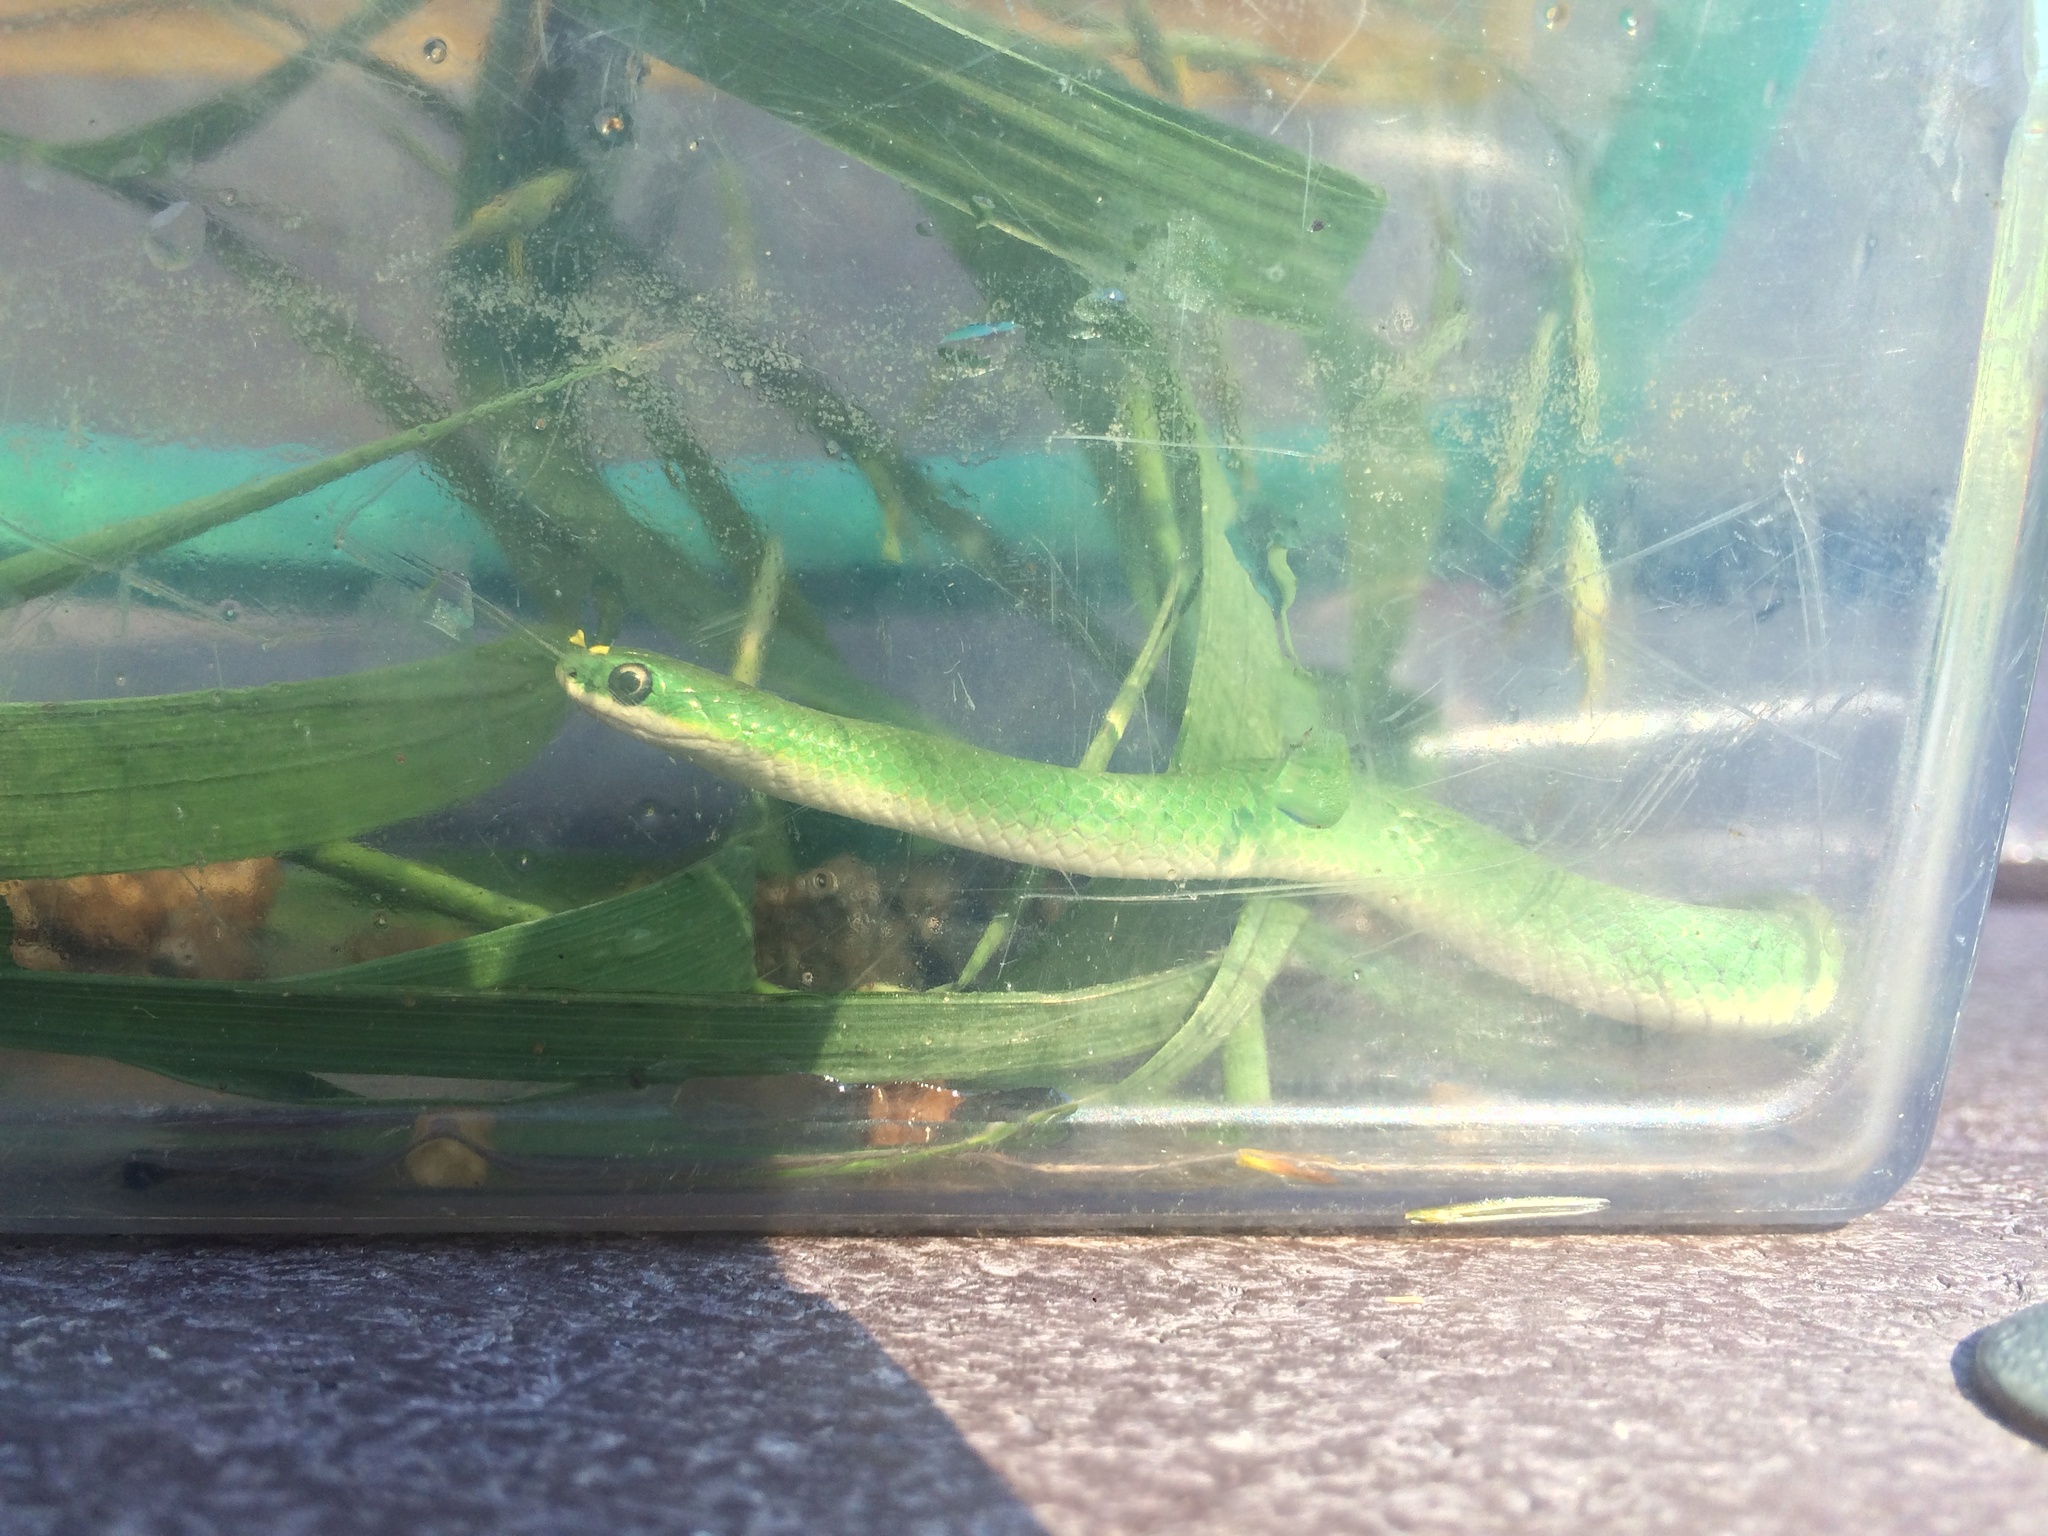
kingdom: Animalia
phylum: Chordata
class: Squamata
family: Colubridae
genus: Opheodrys
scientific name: Opheodrys vernalis
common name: Smooth green snake
